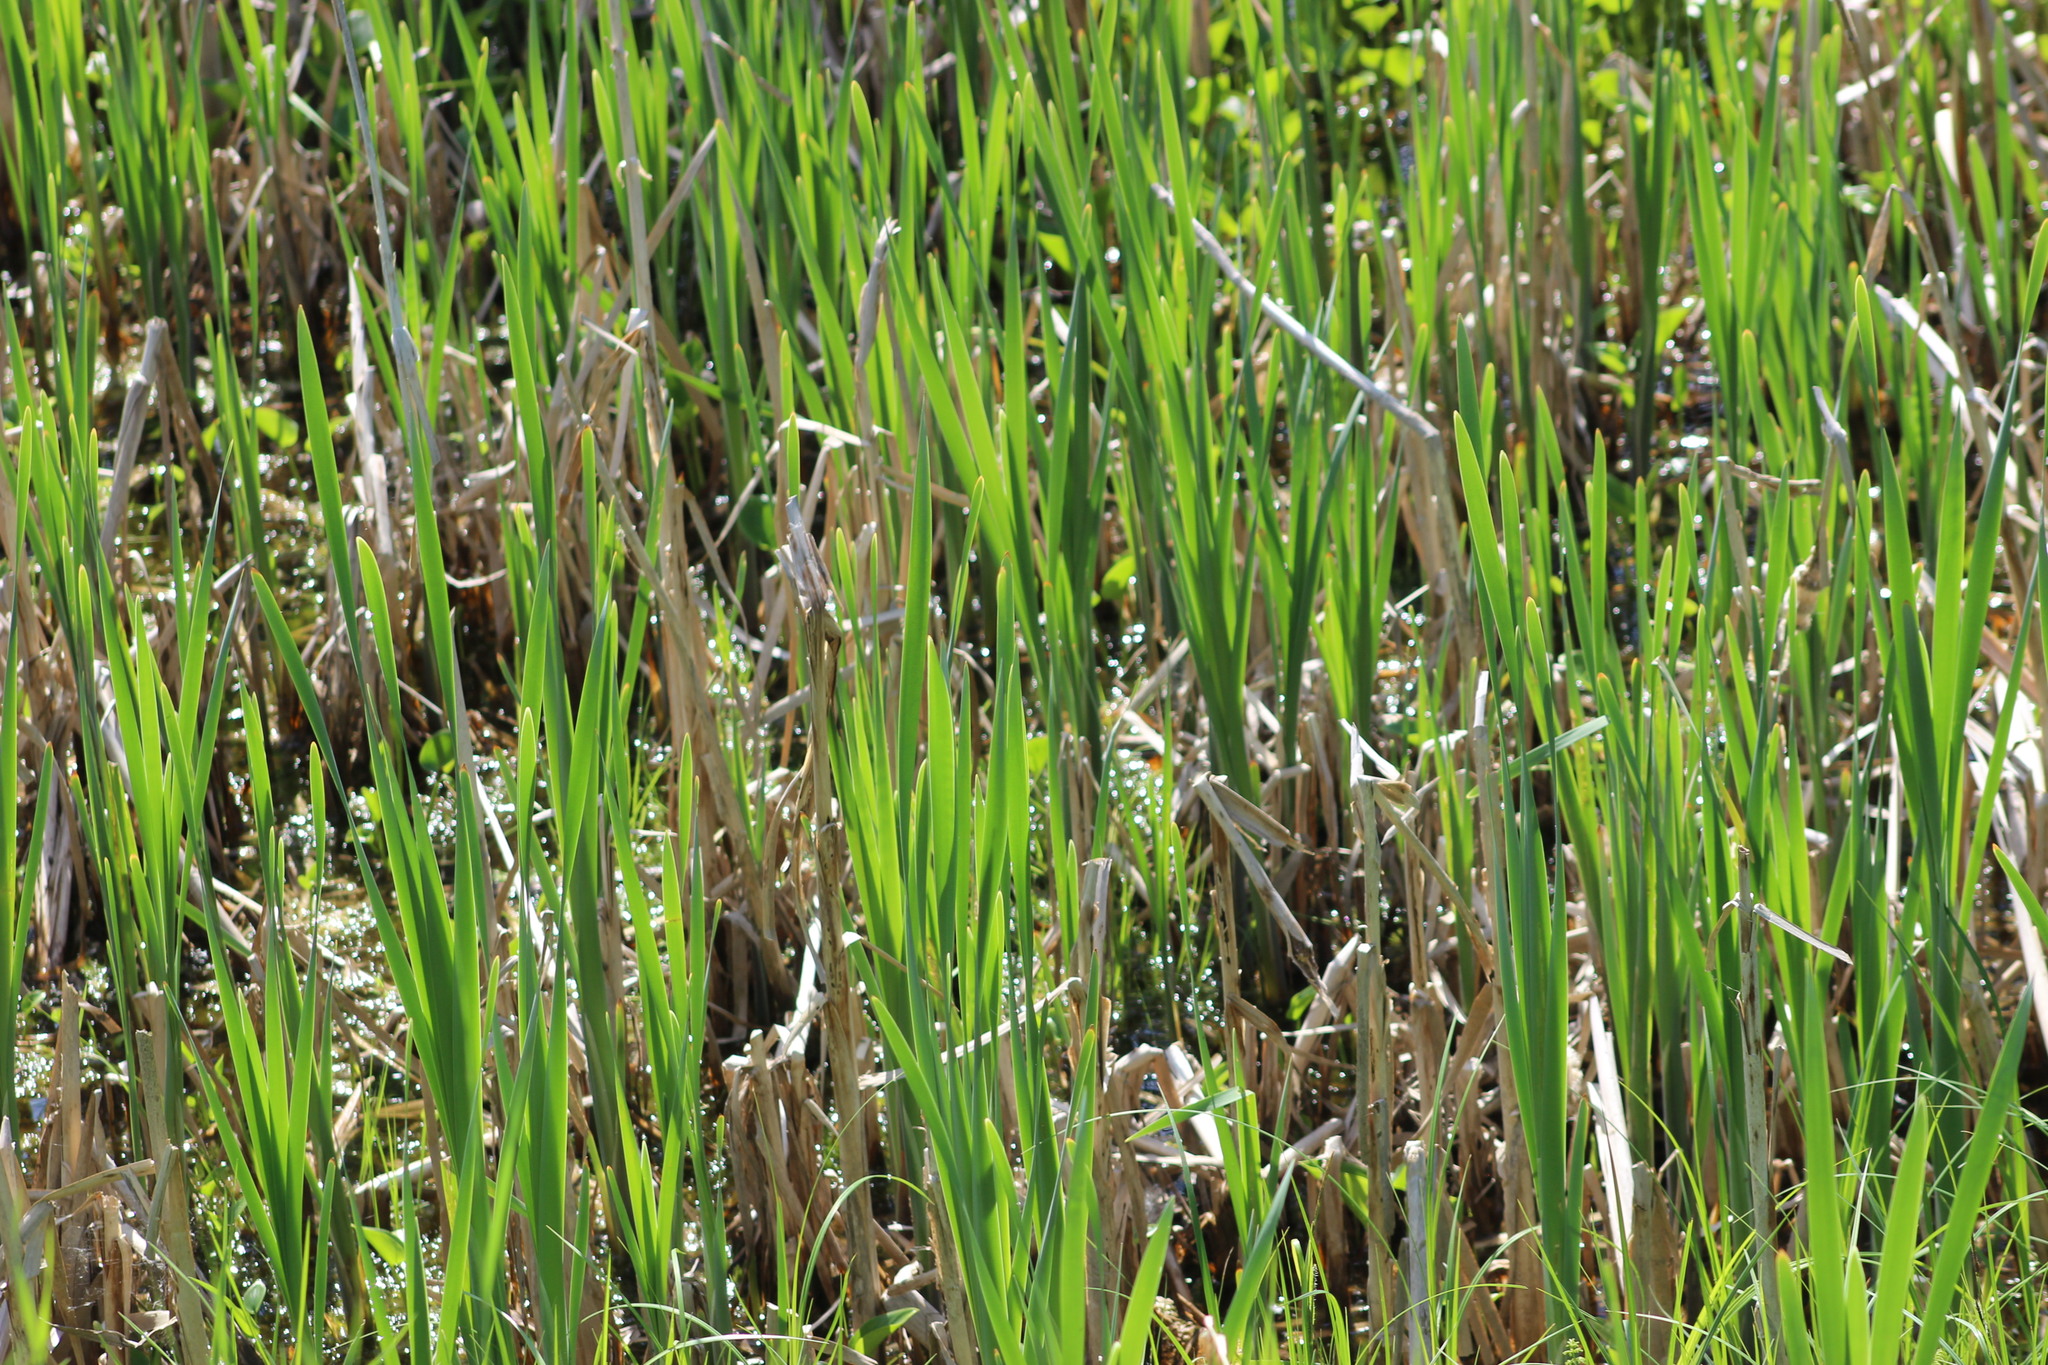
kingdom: Plantae
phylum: Tracheophyta
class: Liliopsida
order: Poales
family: Poaceae
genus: Phragmites
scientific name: Phragmites australis
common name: Common reed
